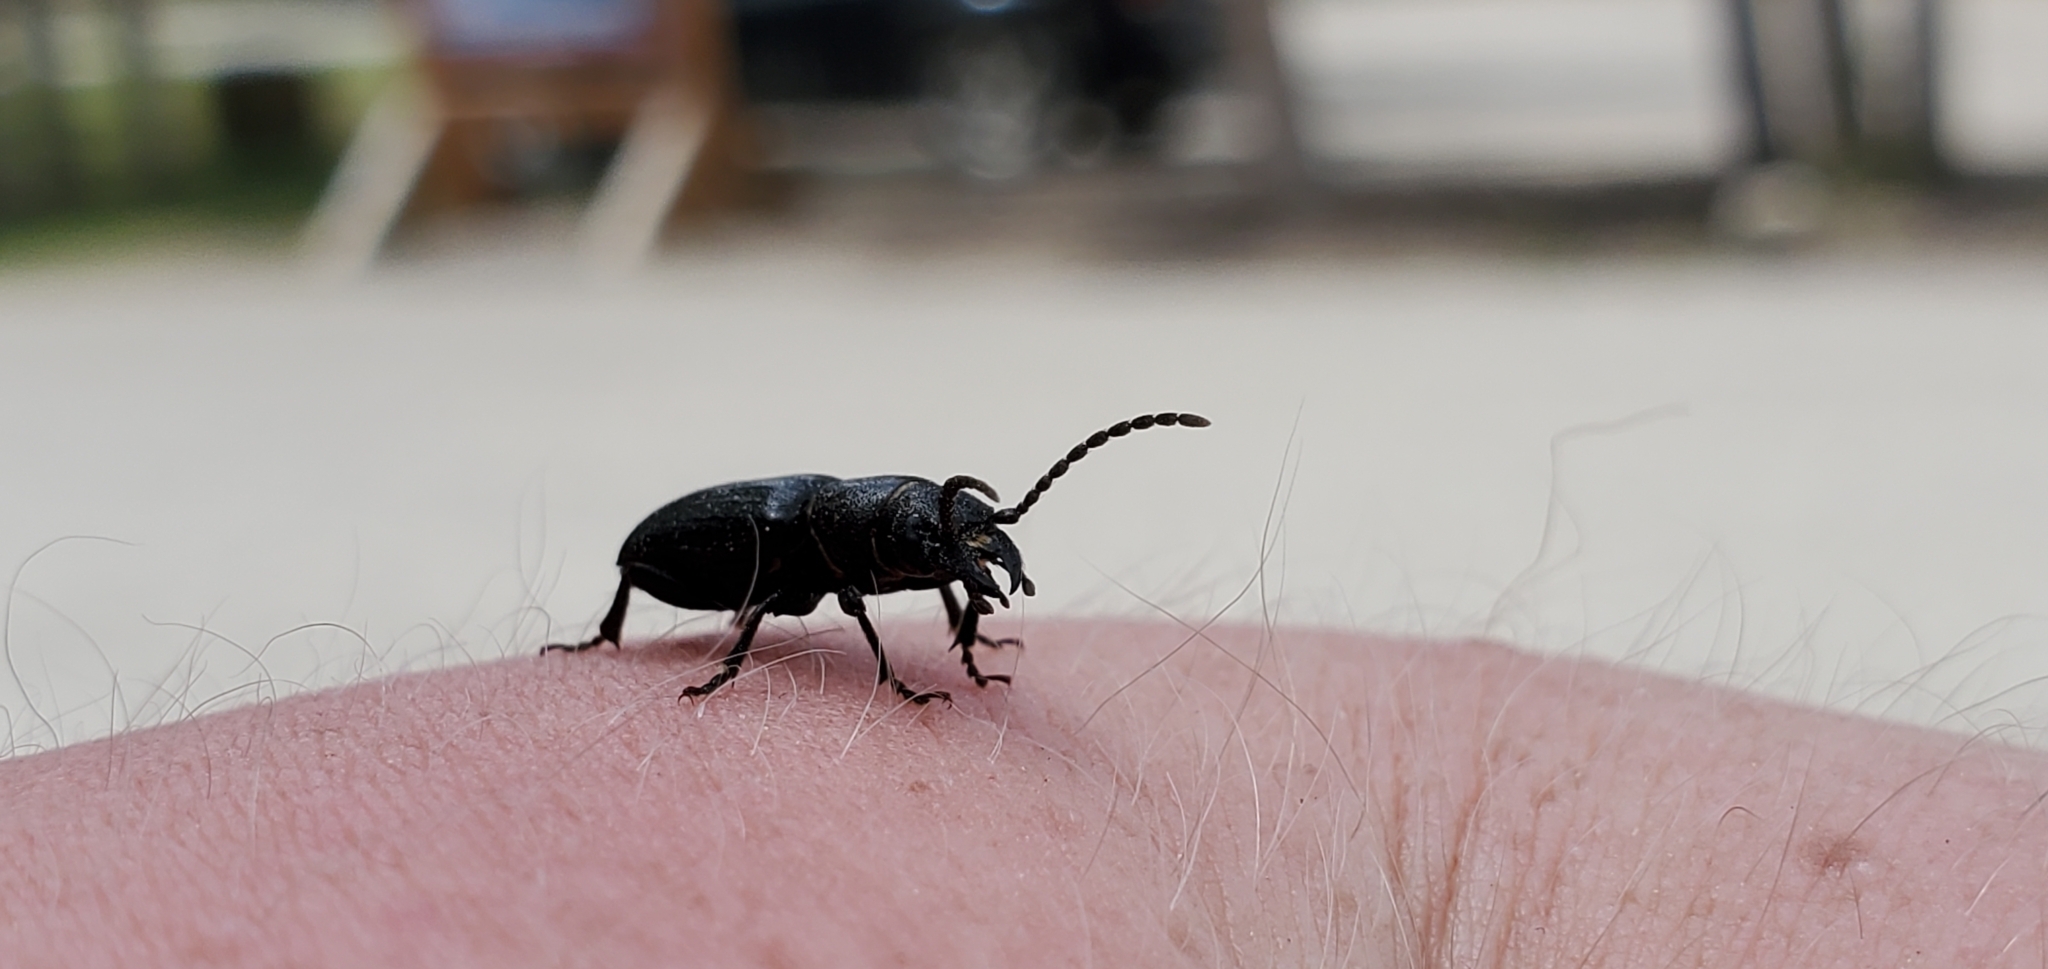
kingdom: Animalia
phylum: Arthropoda
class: Insecta
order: Coleoptera
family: Cerambycidae
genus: Neospondylis
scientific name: Neospondylis upiformis
